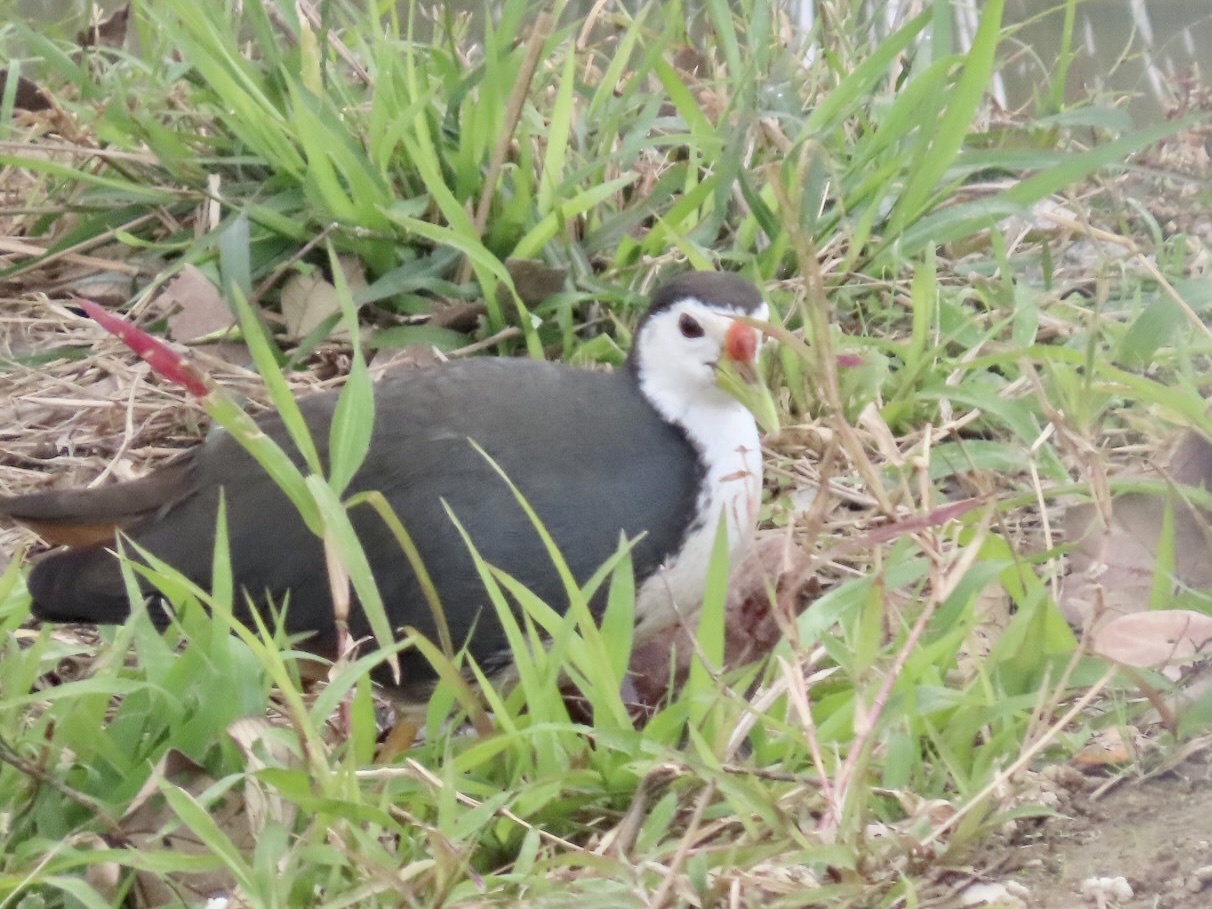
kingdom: Animalia
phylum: Chordata
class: Aves
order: Gruiformes
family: Rallidae
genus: Amaurornis
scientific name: Amaurornis phoenicurus
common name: White-breasted waterhen
